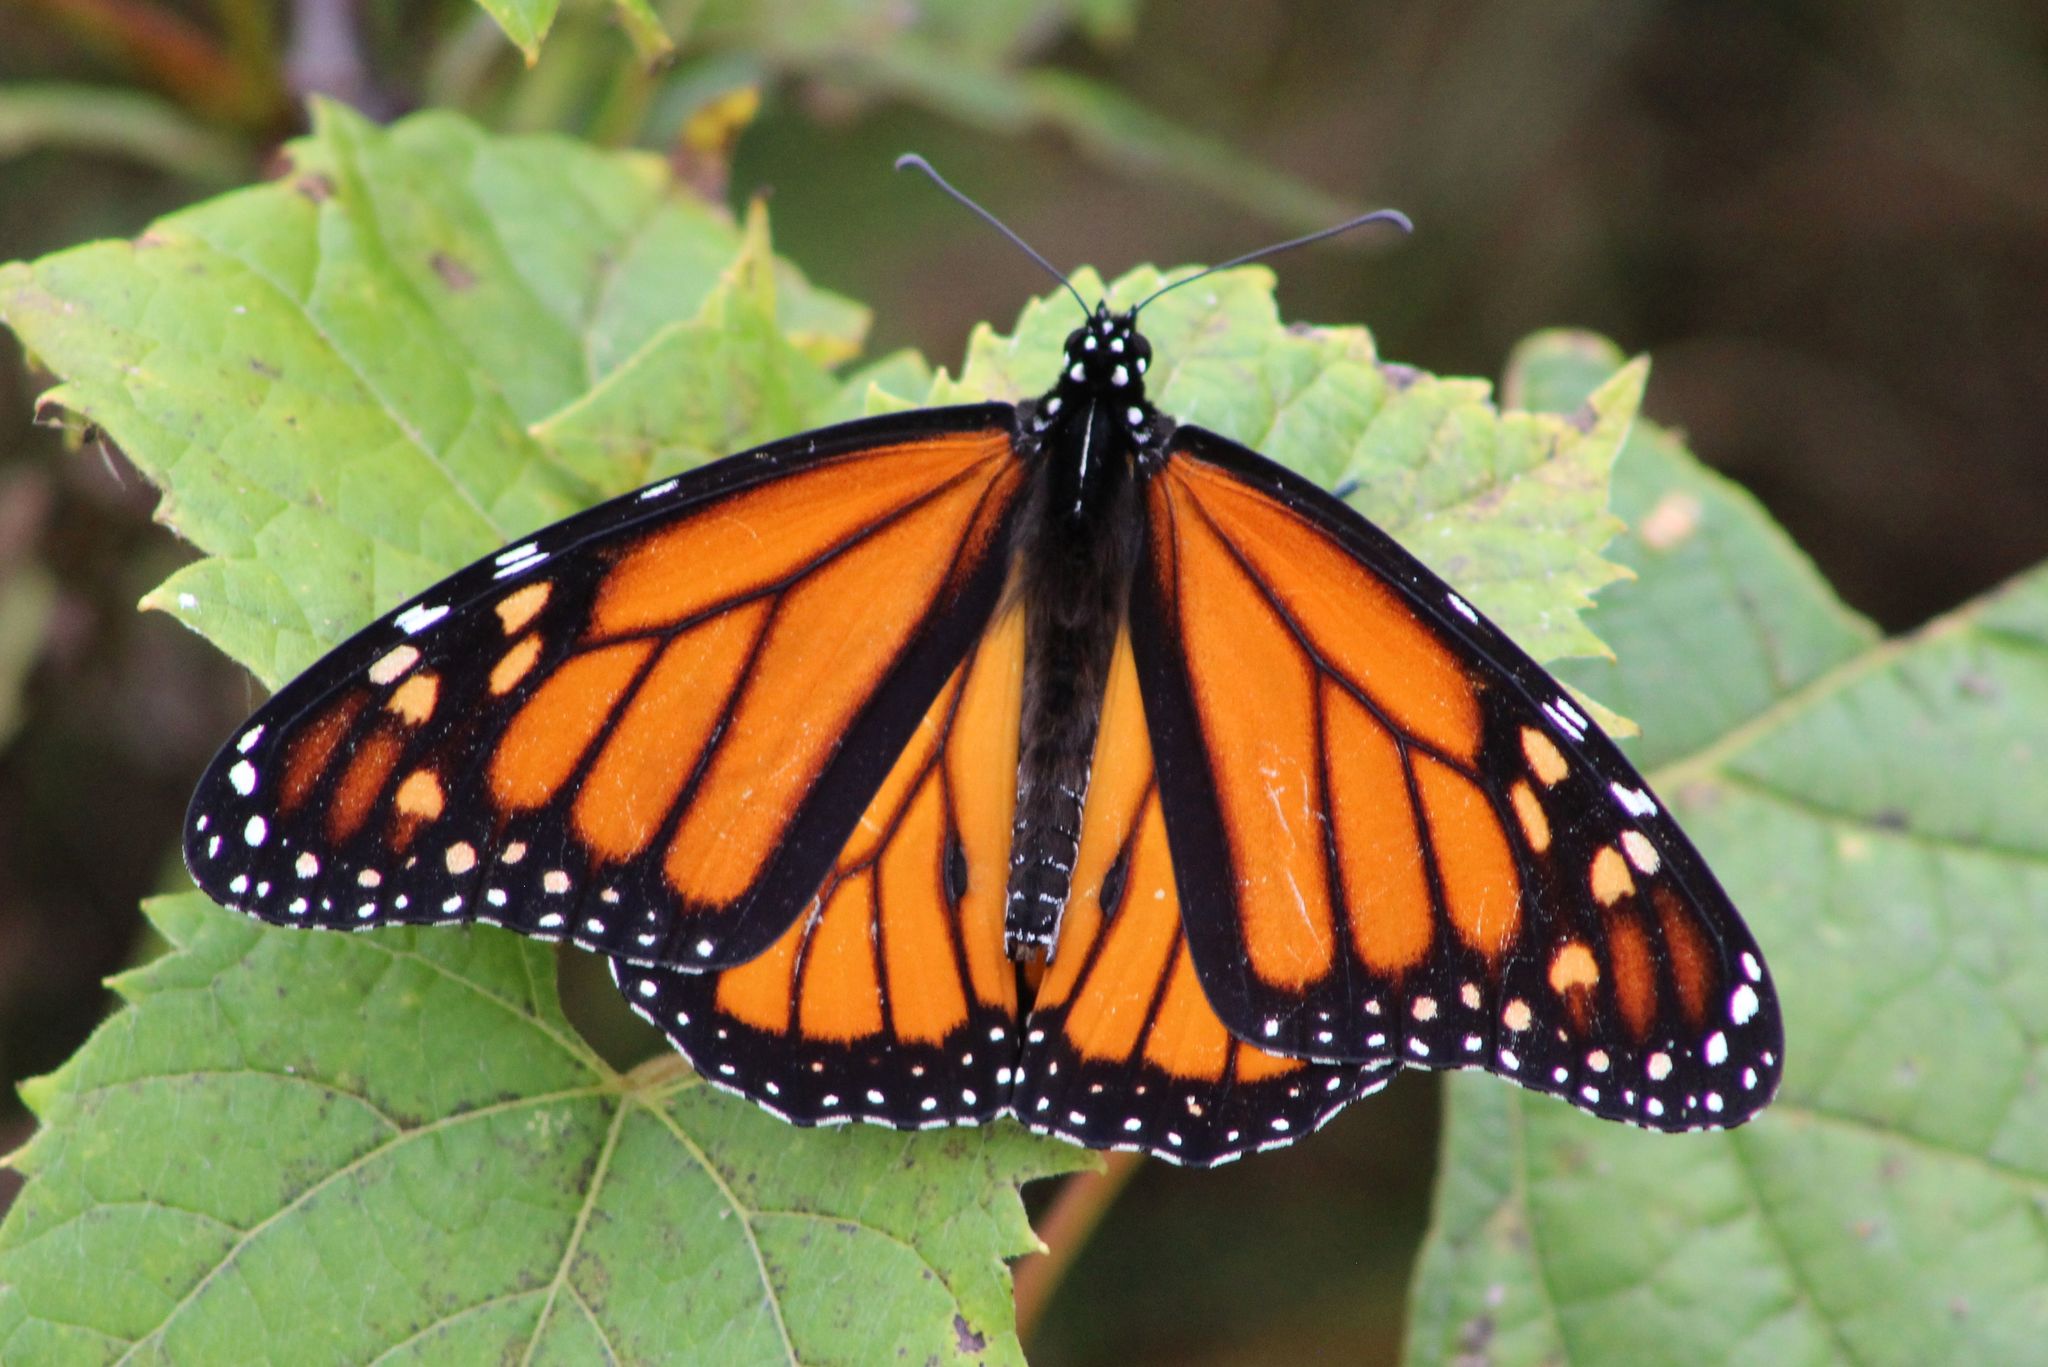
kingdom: Animalia
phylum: Arthropoda
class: Insecta
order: Lepidoptera
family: Nymphalidae
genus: Danaus
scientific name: Danaus plexippus
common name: Monarch
